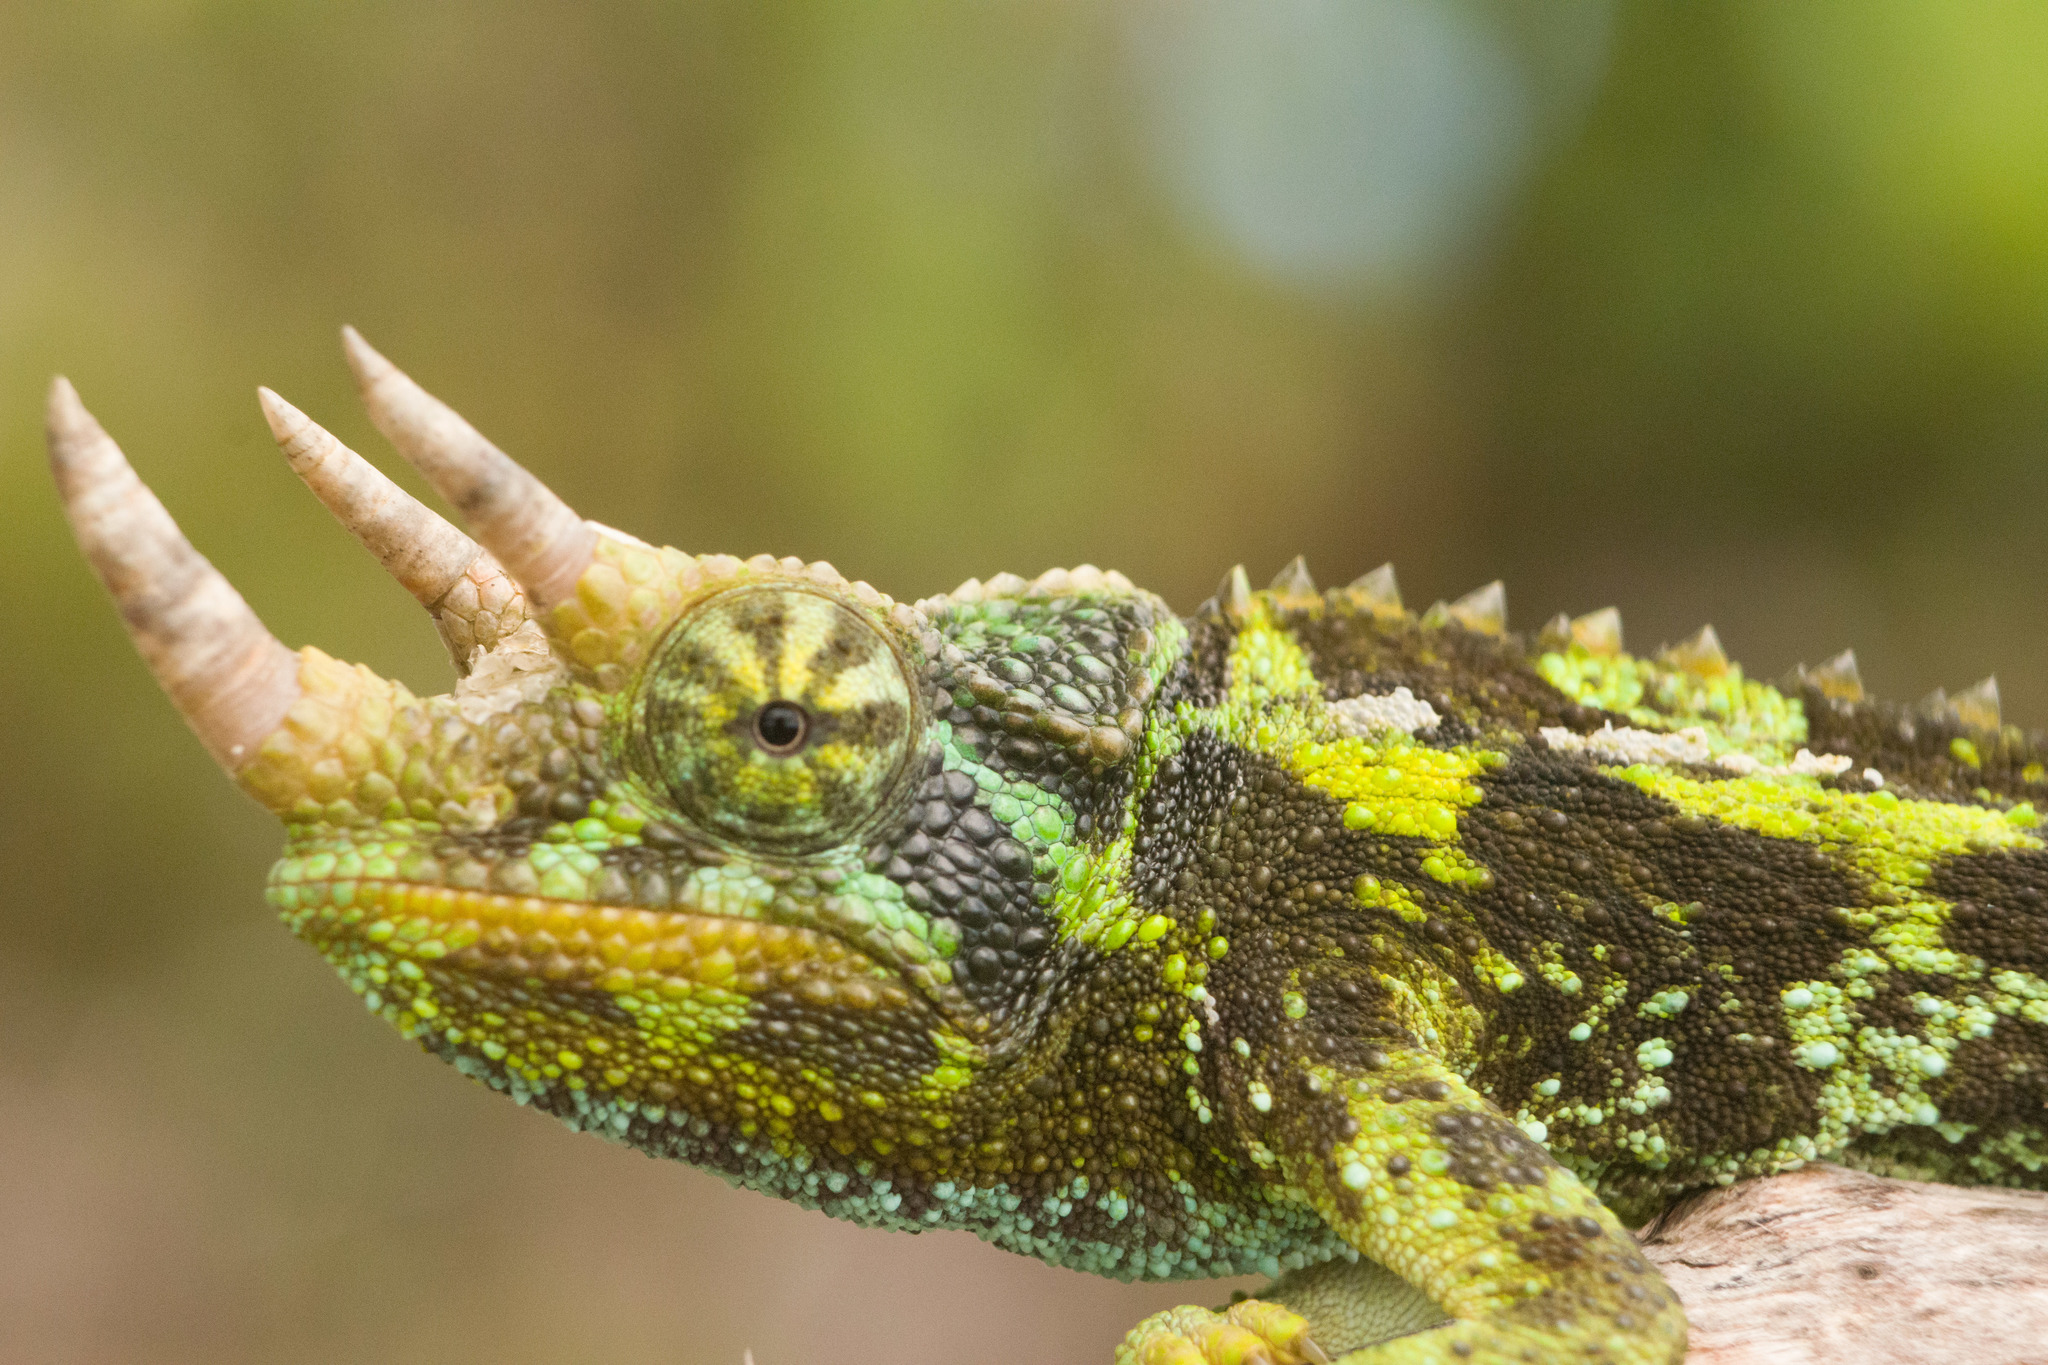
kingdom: Animalia
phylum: Chordata
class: Squamata
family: Chamaeleonidae
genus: Trioceros
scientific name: Trioceros jacksonii
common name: Jackson's chameleon
